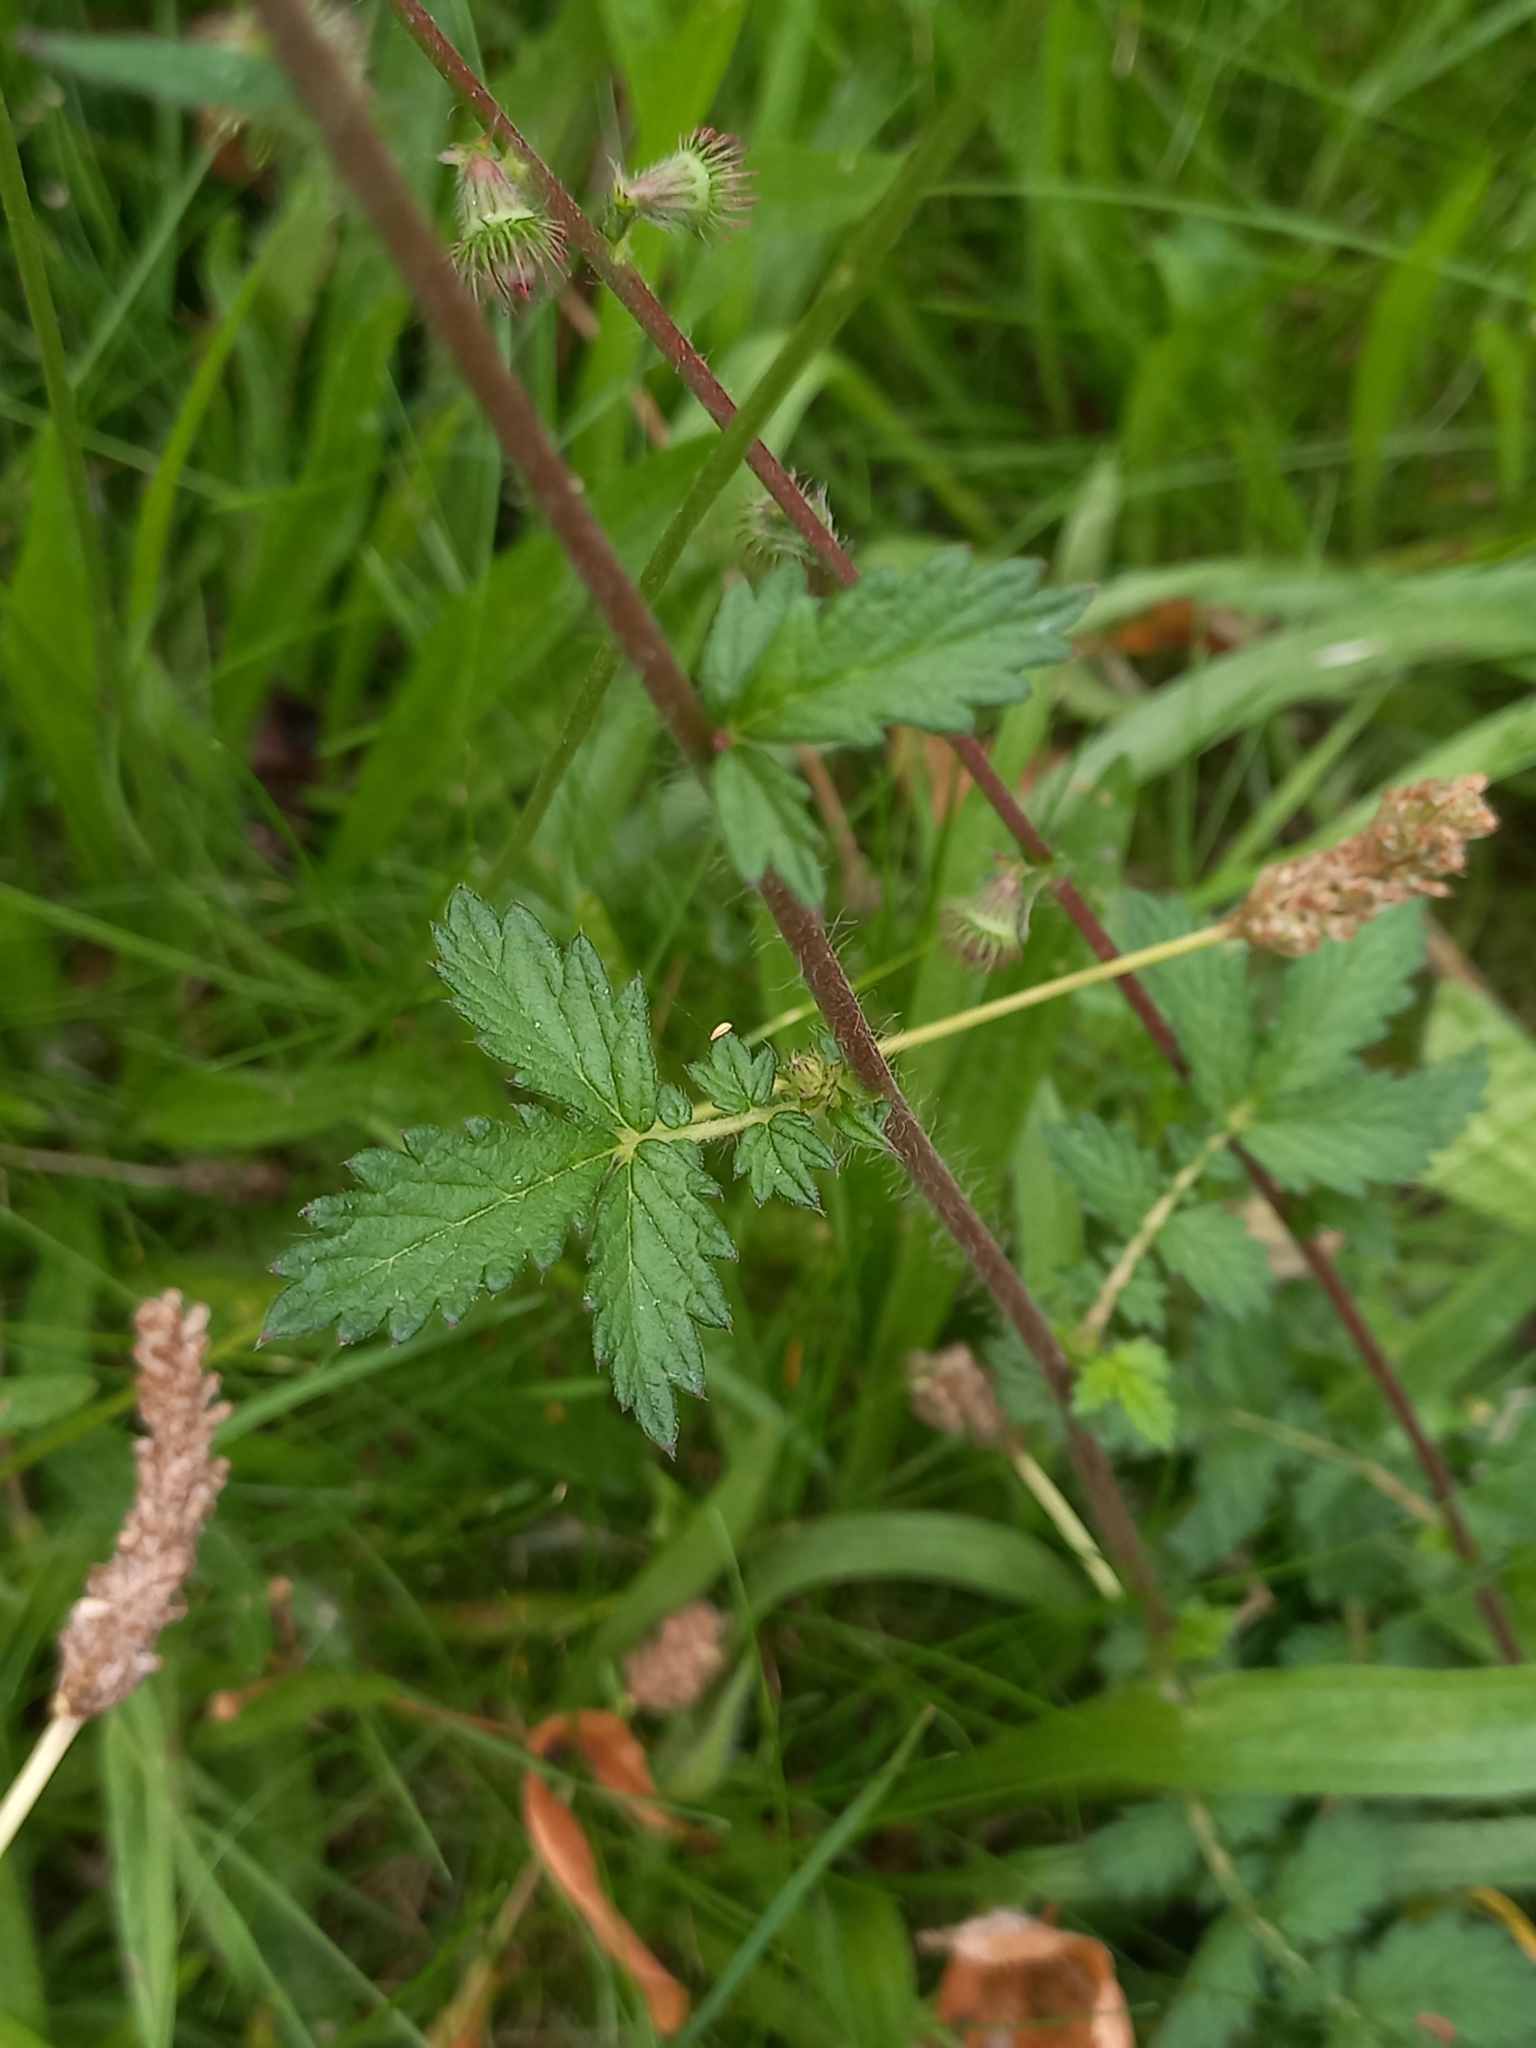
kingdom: Plantae
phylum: Tracheophyta
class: Magnoliopsida
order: Rosales
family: Rosaceae
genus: Agrimonia
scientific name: Agrimonia eupatoria
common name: Agrimony
